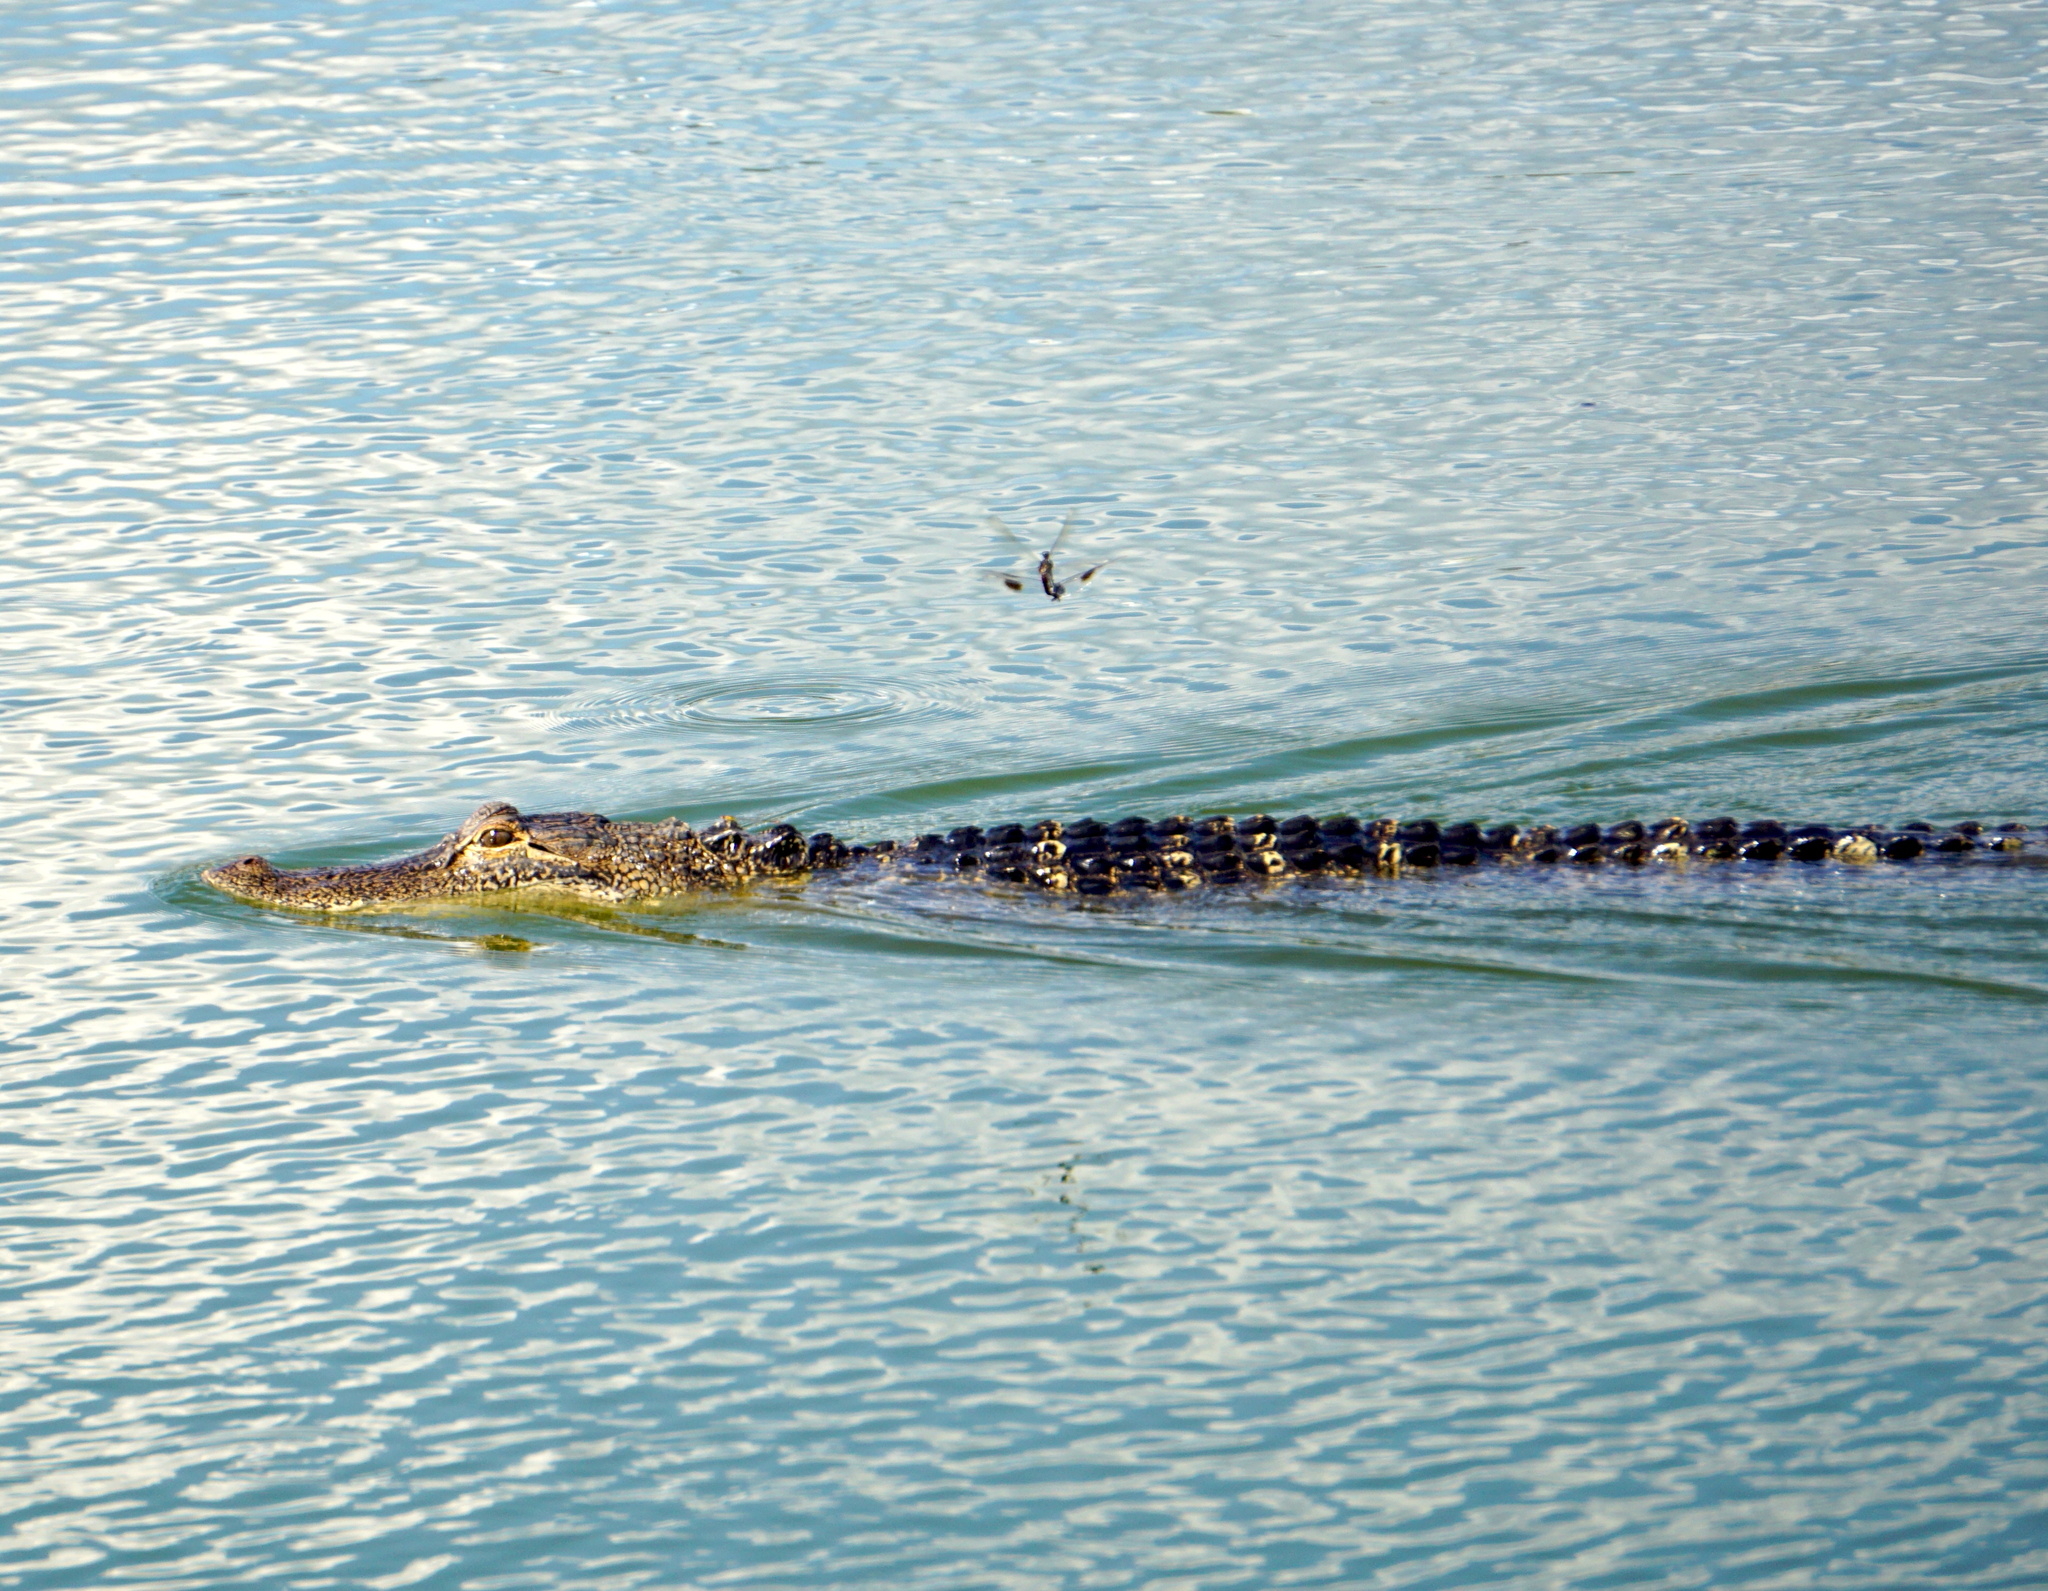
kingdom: Animalia
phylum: Chordata
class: Crocodylia
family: Alligatoridae
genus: Alligator
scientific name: Alligator mississippiensis
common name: American alligator
